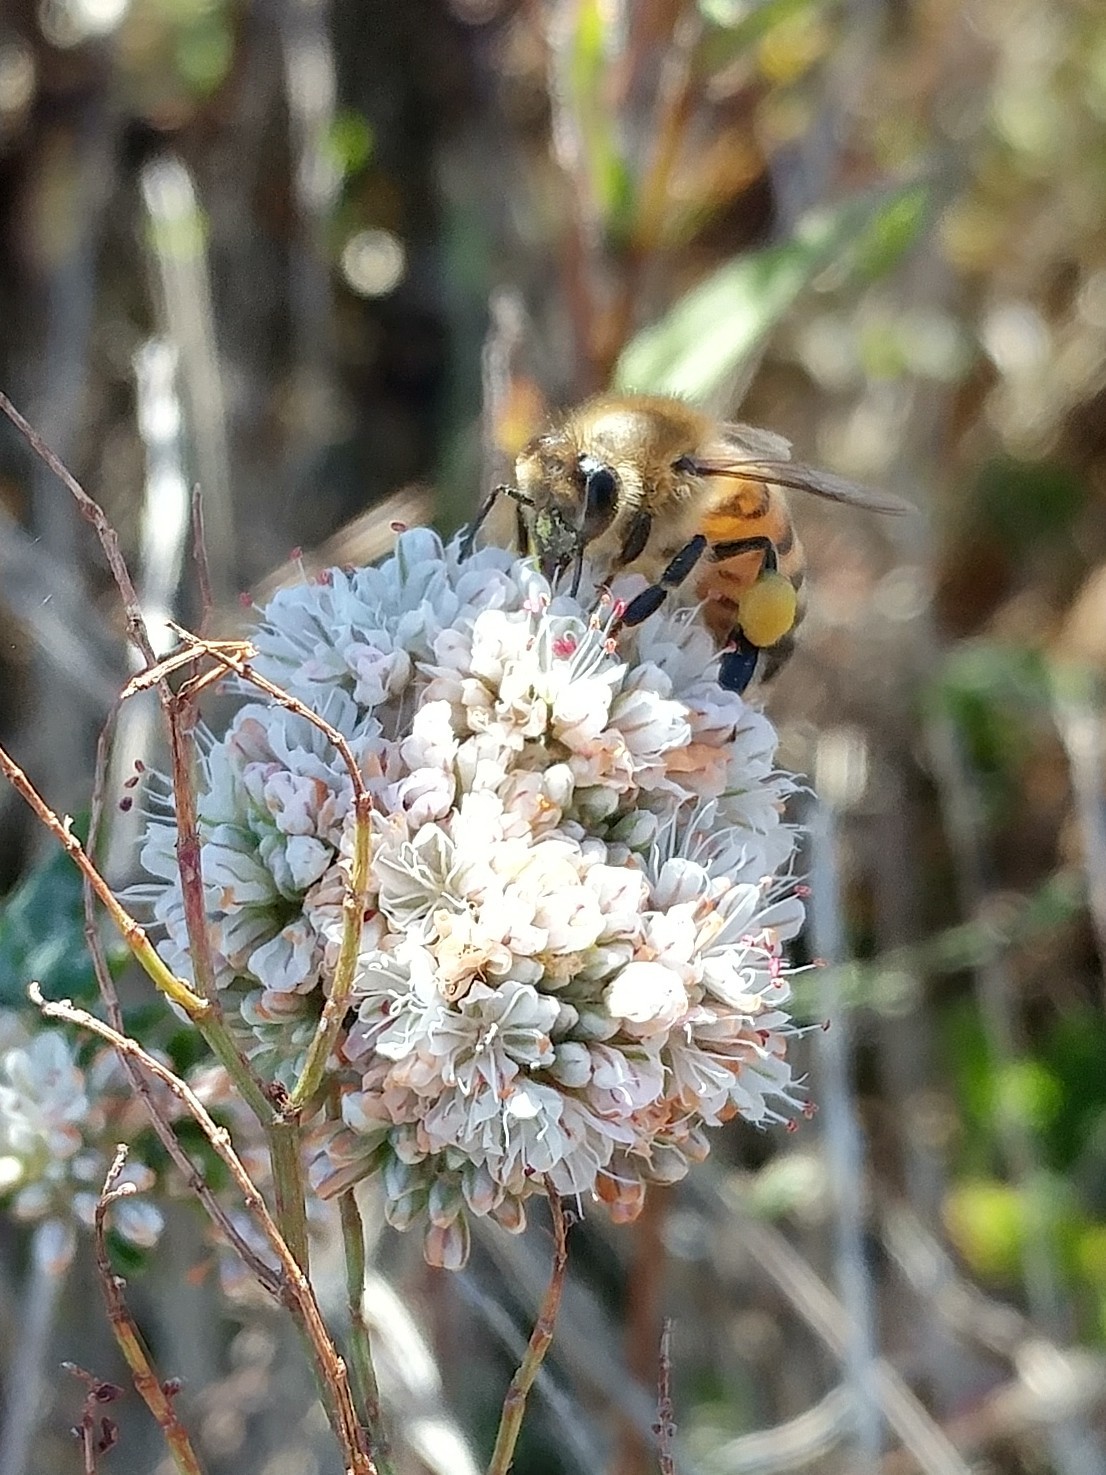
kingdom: Animalia
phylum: Arthropoda
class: Insecta
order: Hymenoptera
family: Apidae
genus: Apis
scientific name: Apis mellifera
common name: Honey bee
